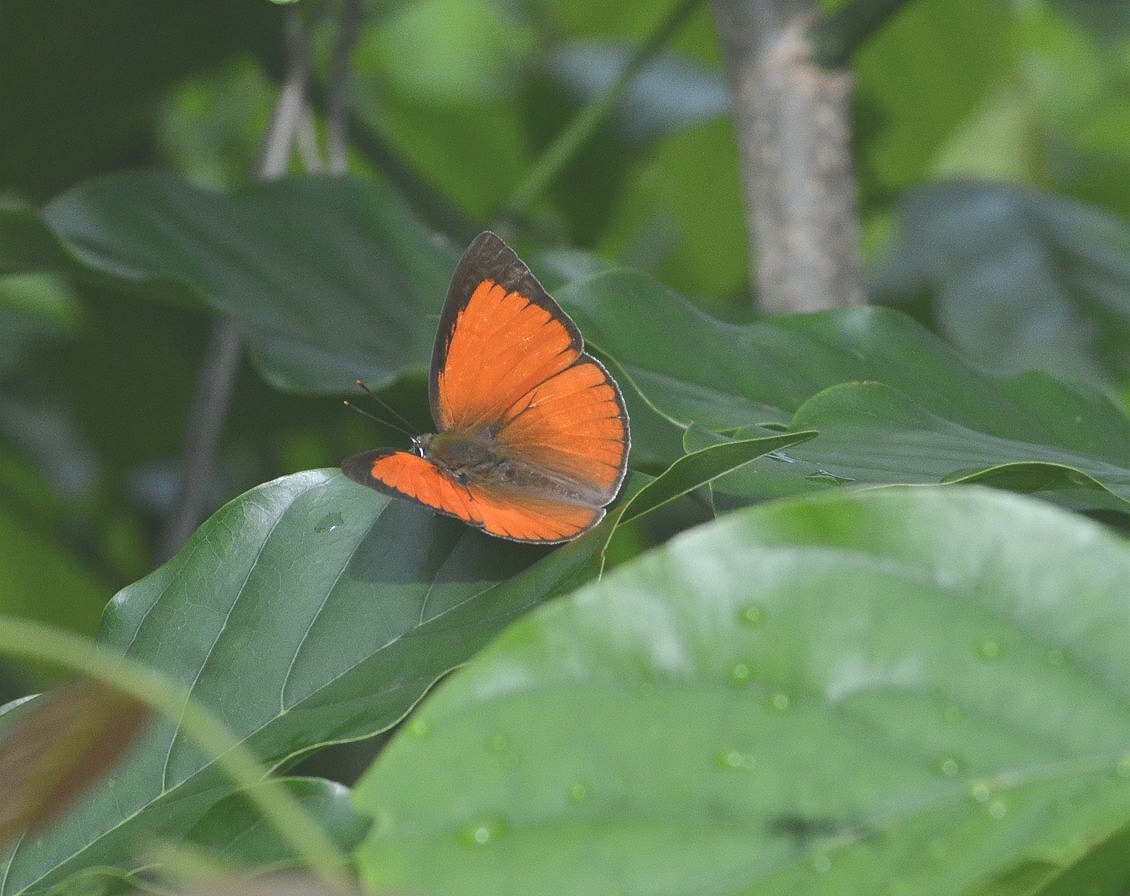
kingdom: Animalia
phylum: Arthropoda
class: Insecta
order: Lepidoptera
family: Lycaenidae
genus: Curetis
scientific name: Curetis thetis
